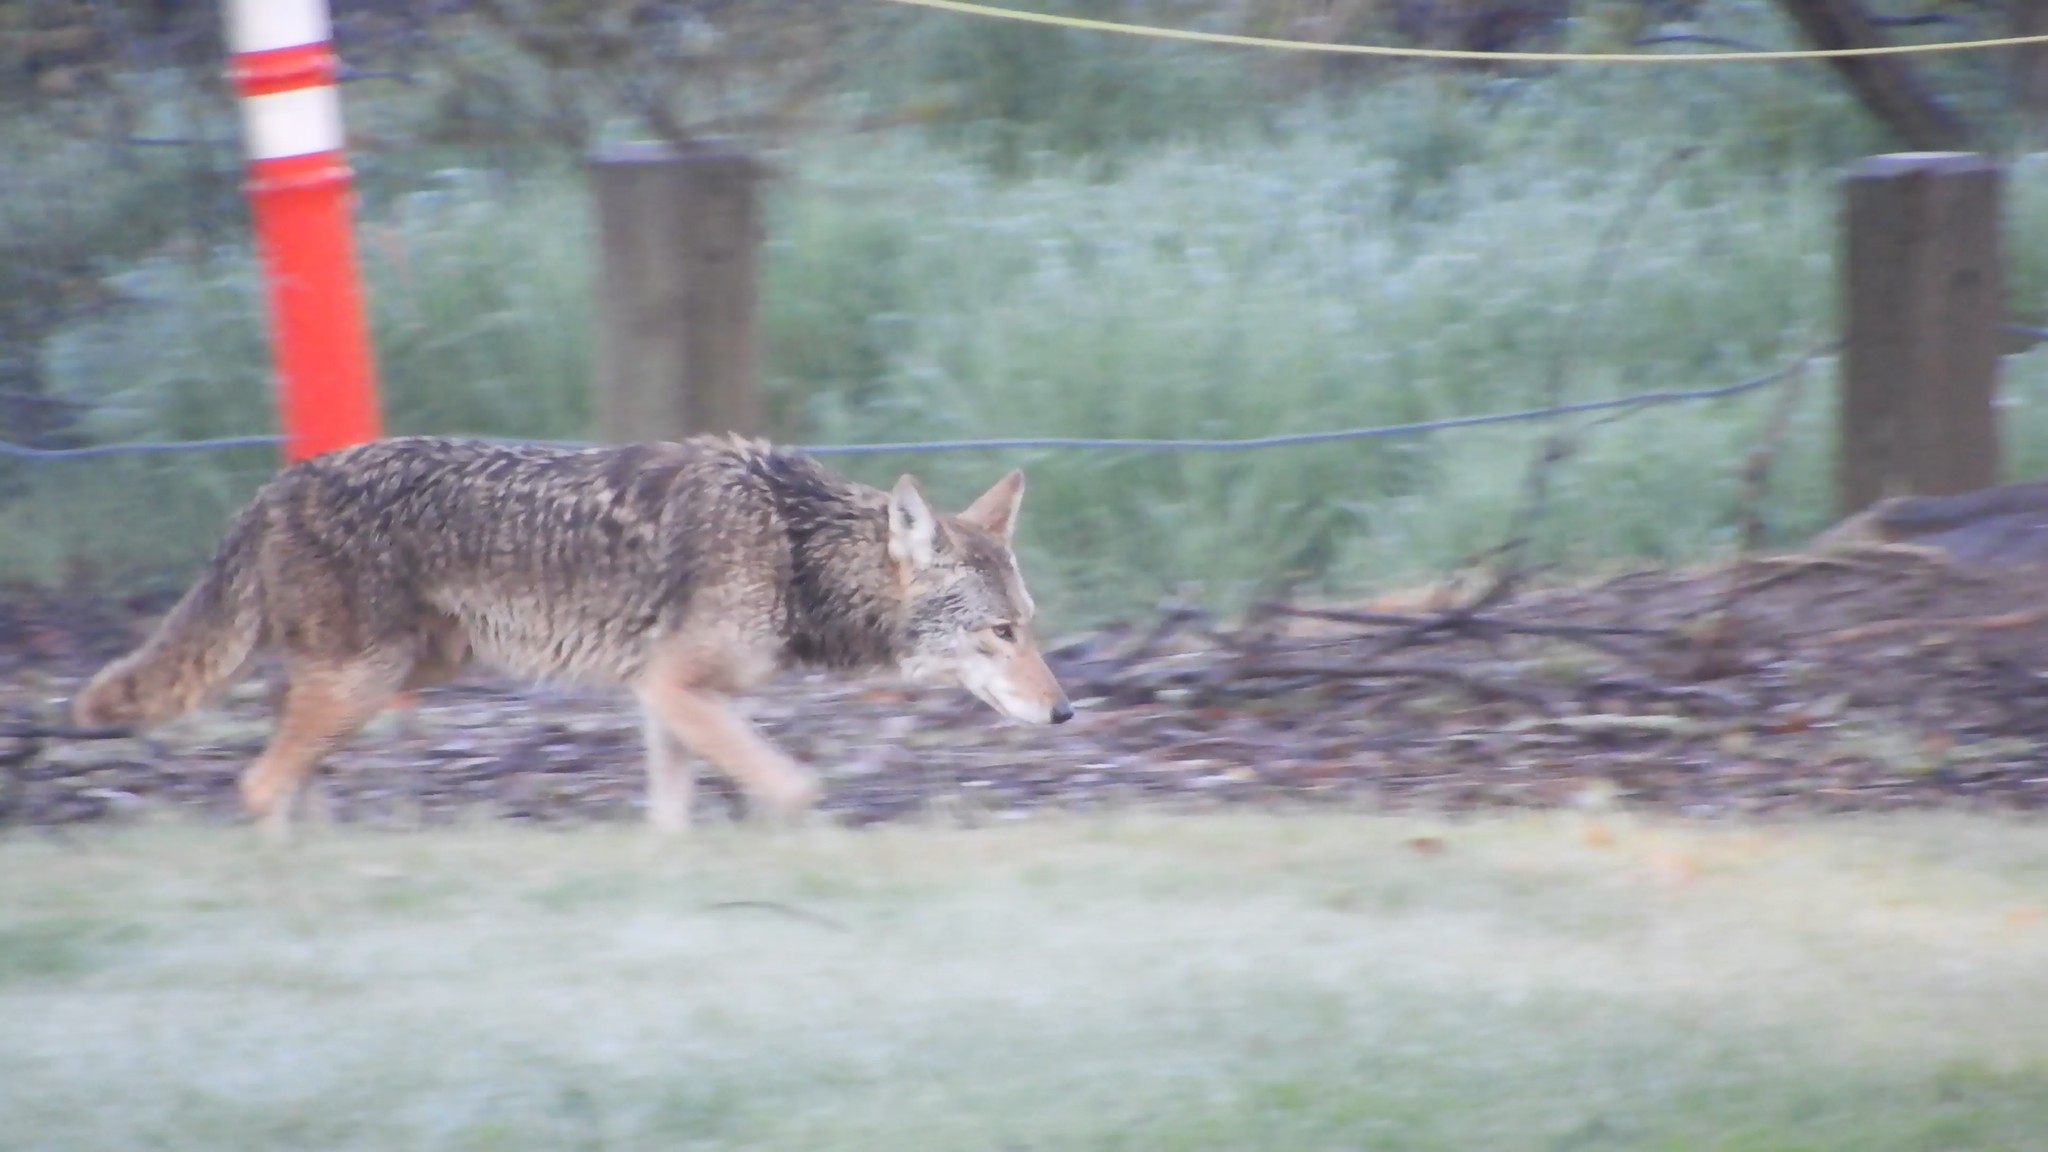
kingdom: Animalia
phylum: Chordata
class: Mammalia
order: Carnivora
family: Canidae
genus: Canis
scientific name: Canis latrans
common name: Coyote
